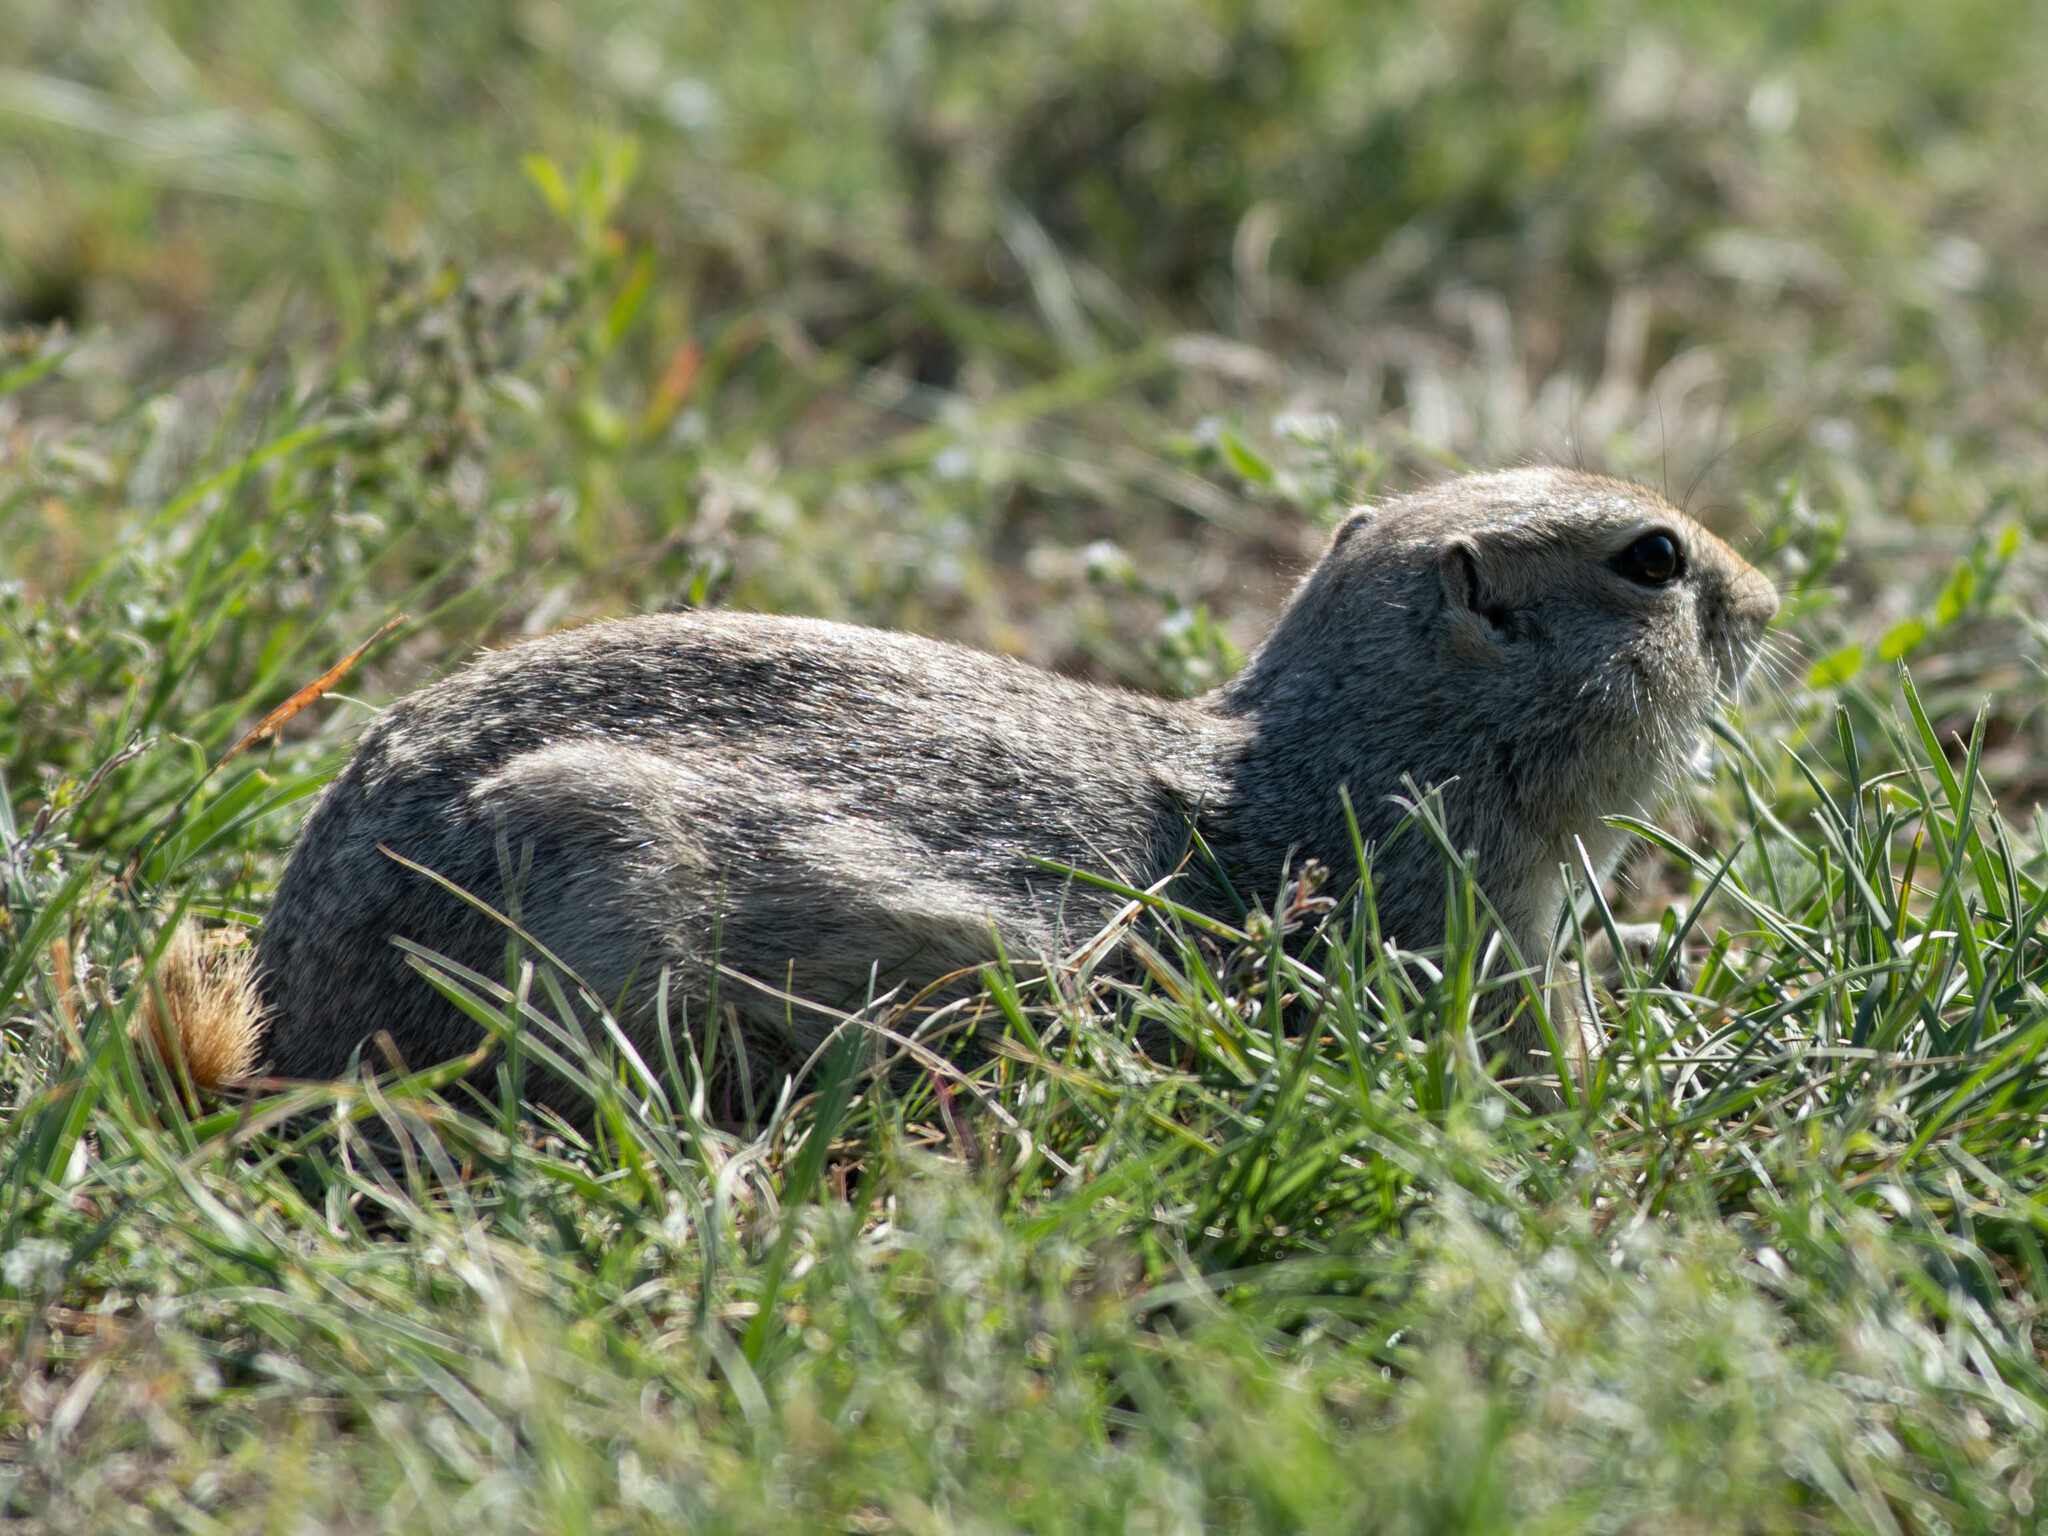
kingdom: Animalia
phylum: Chordata
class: Mammalia
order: Rodentia
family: Sciuridae
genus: Urocitellus
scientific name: Urocitellus richardsonii
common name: Richardson's ground squirrel
